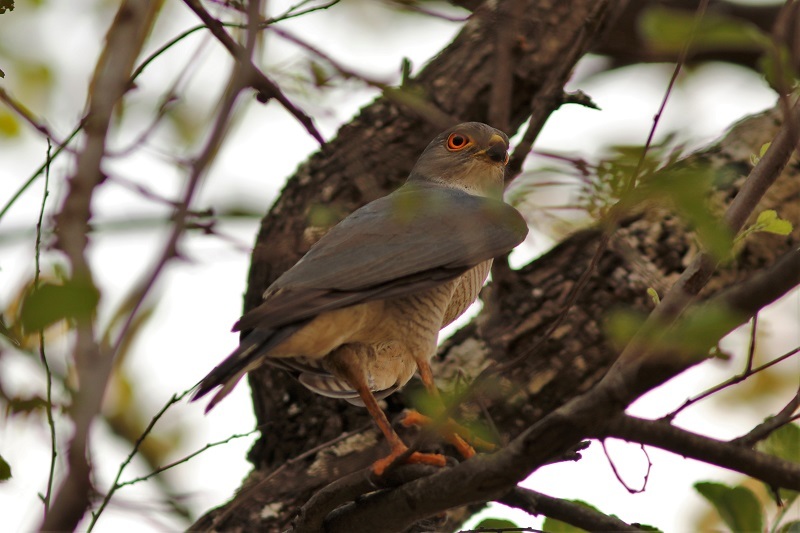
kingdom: Animalia
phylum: Chordata
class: Aves
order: Accipitriformes
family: Accipitridae
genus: Accipiter
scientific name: Accipiter minullus
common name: Little sparrowhawk
